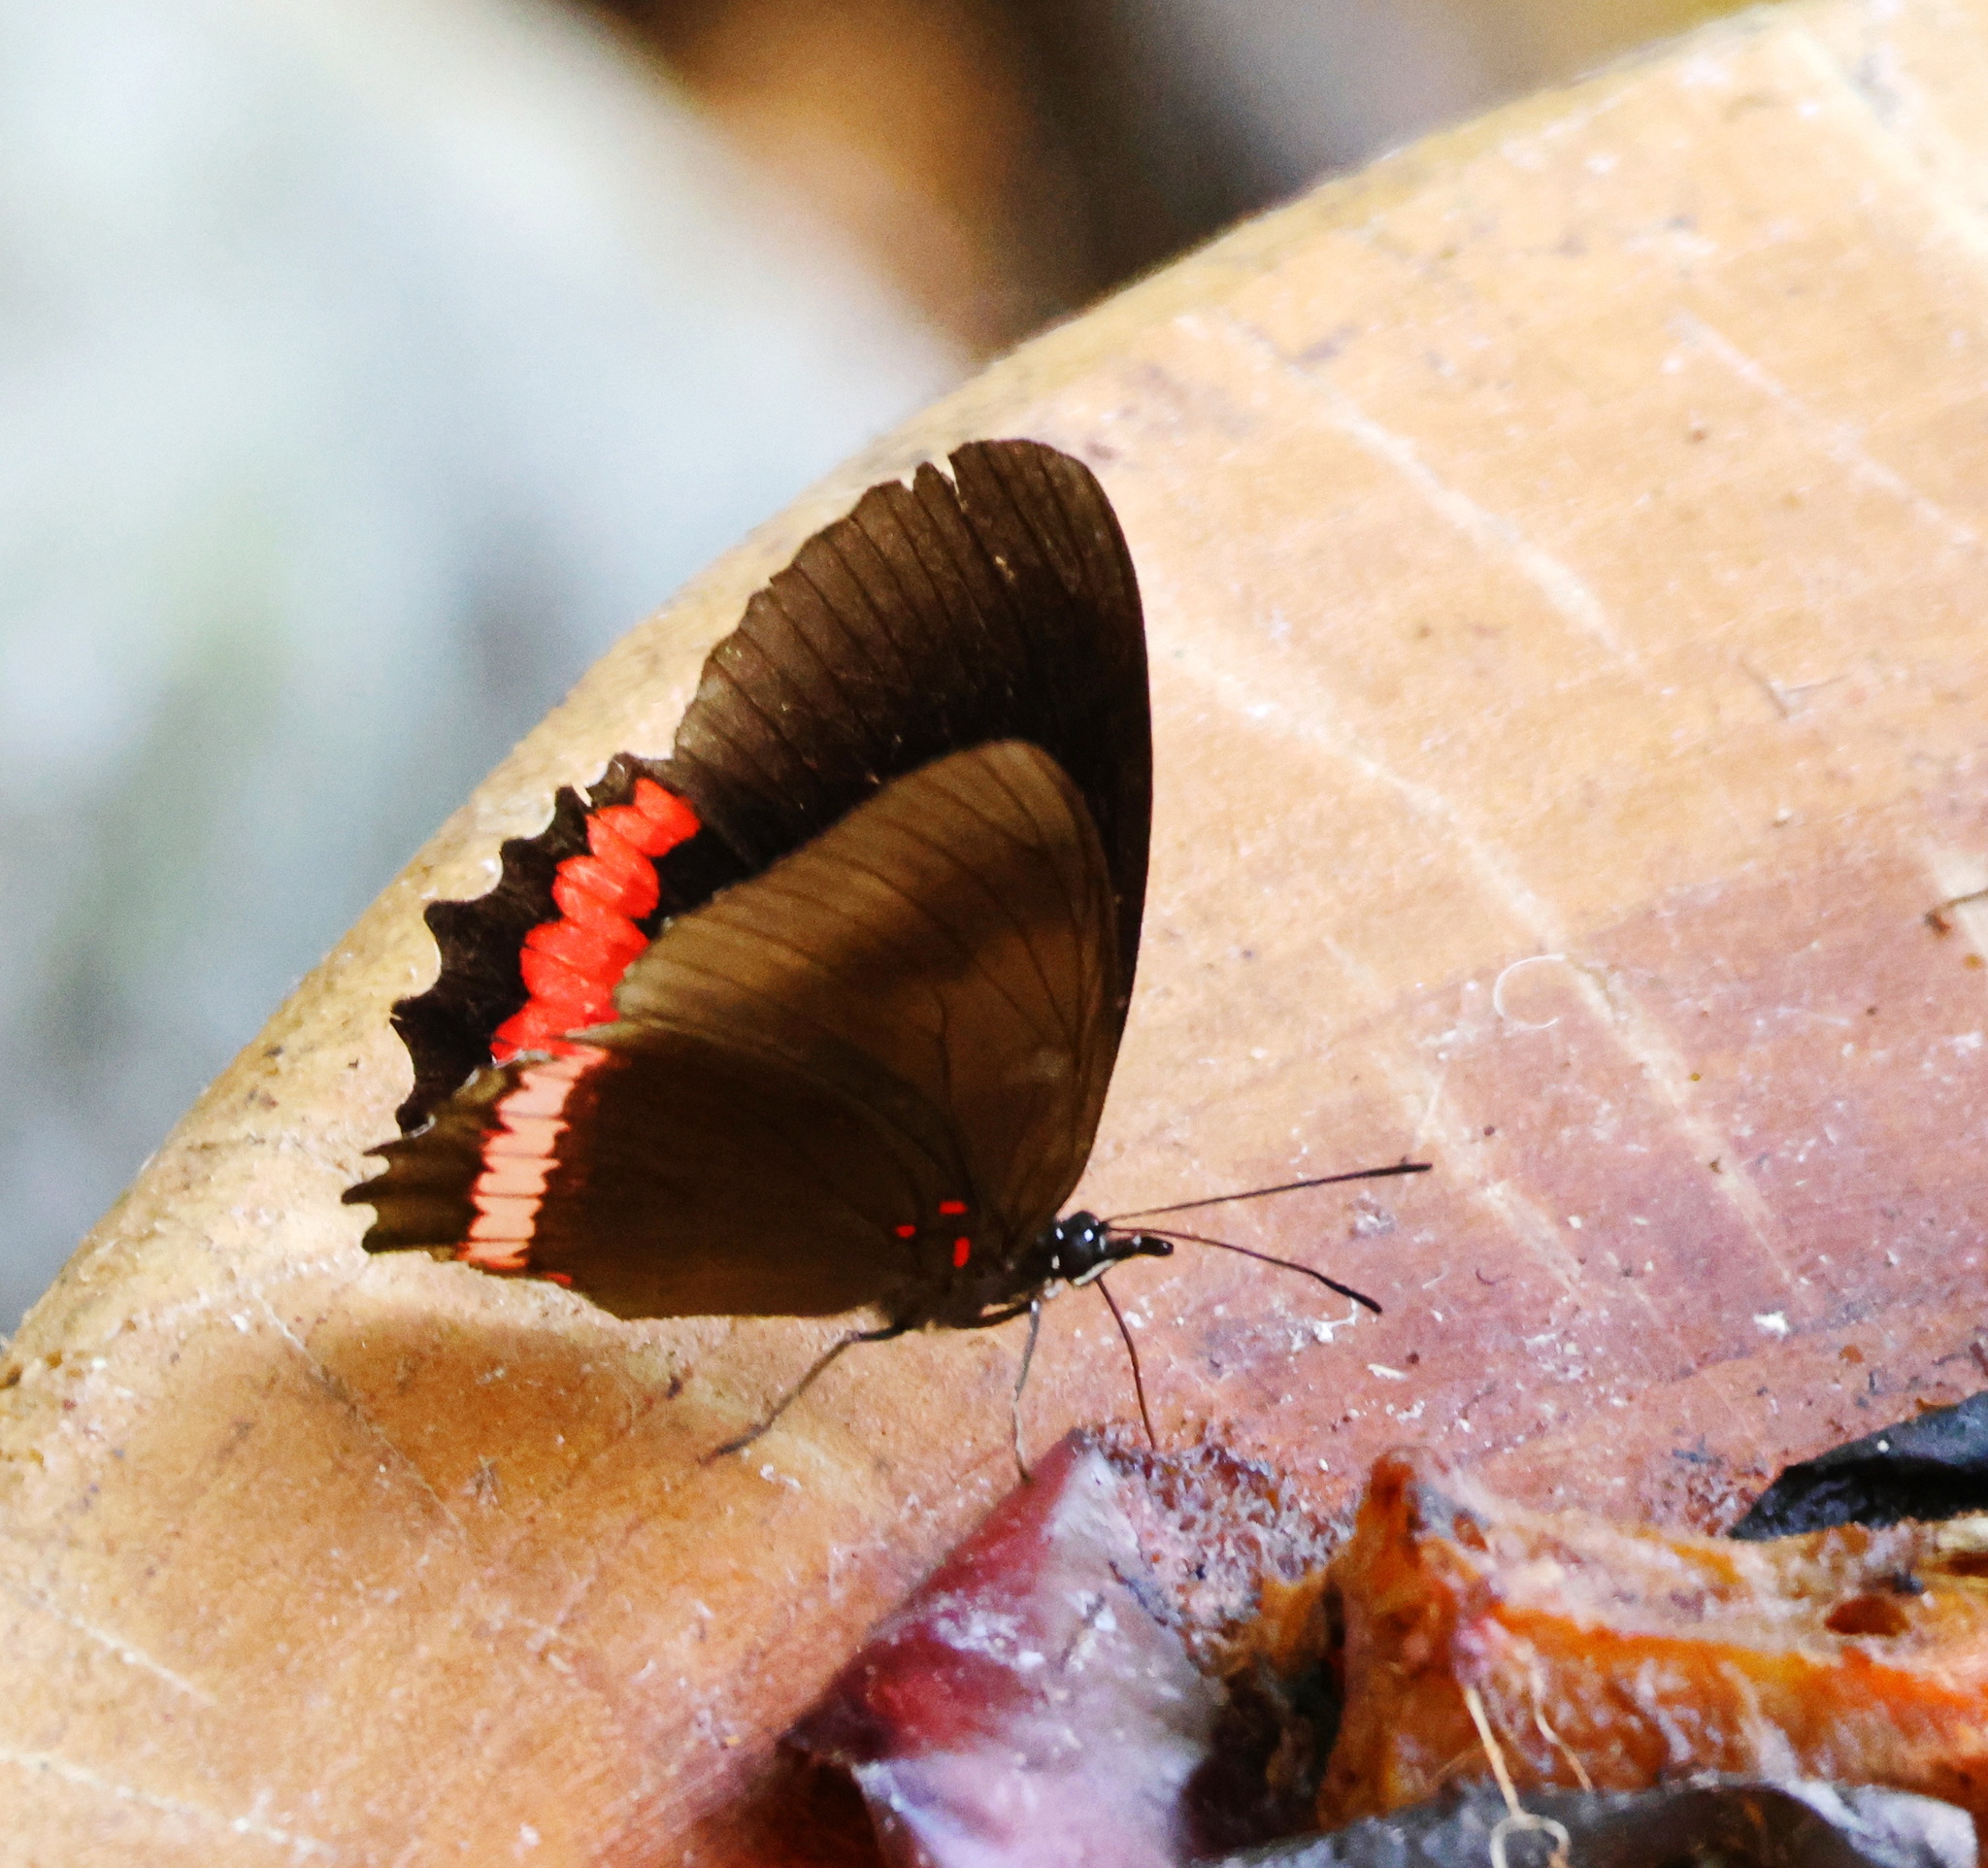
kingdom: Animalia
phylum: Arthropoda
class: Insecta
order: Lepidoptera
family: Nymphalidae
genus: Biblis
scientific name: Biblis aganisa
